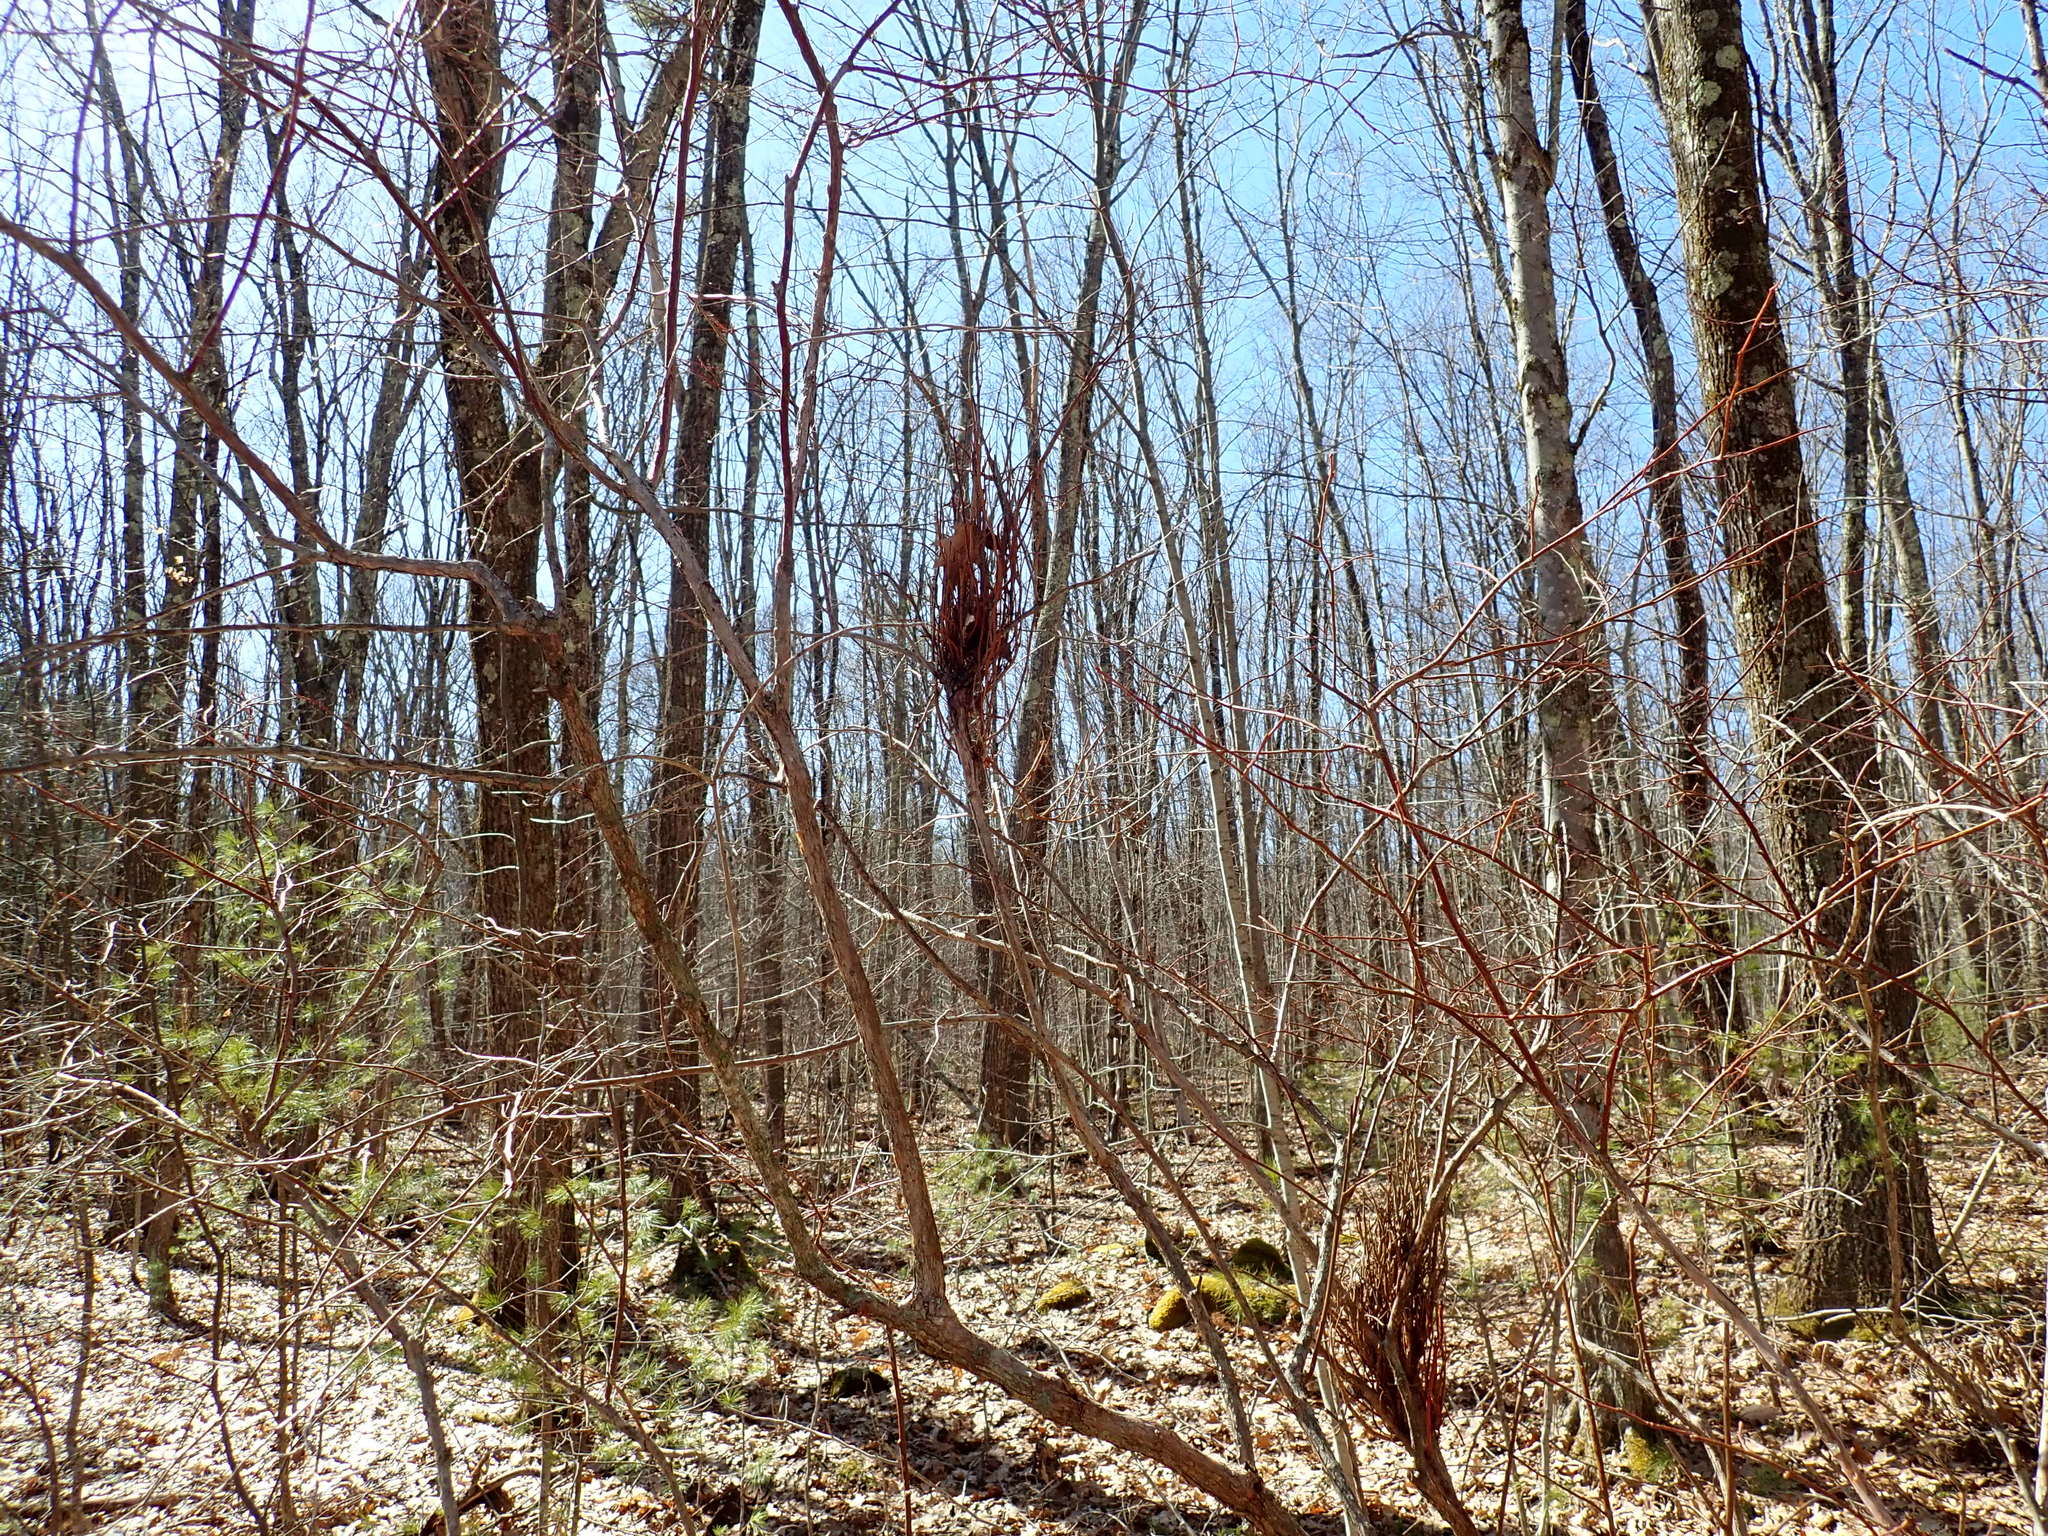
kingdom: Fungi
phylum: Basidiomycota
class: Pucciniomycetes
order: Pucciniales
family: Pucciniastraceae
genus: Calyptospora
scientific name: Calyptospora columnaris
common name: Huckleberry broom rust fungus
